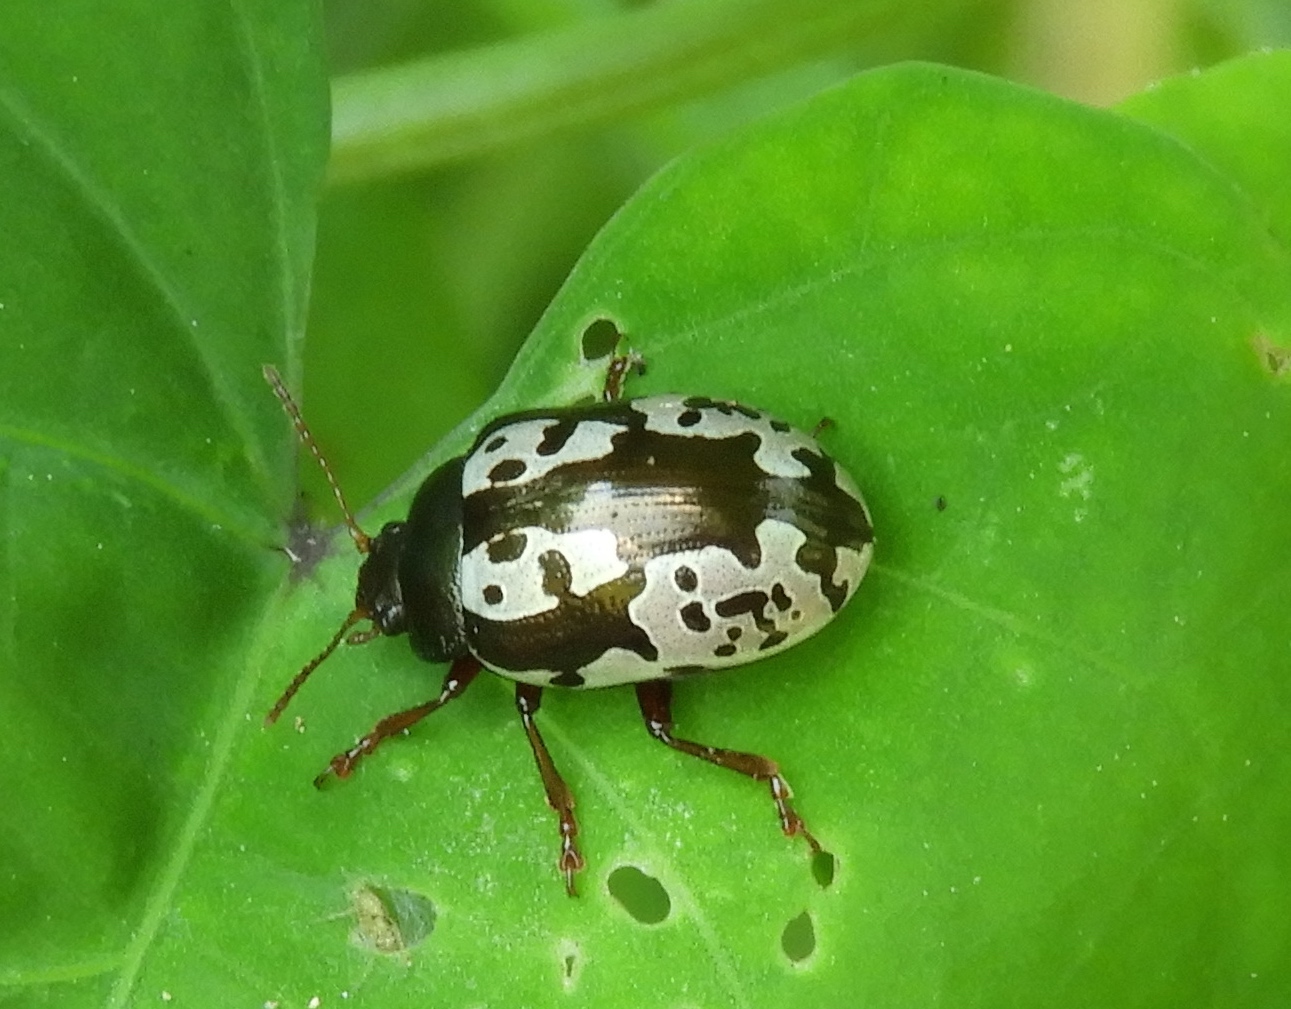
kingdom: Animalia
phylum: Arthropoda
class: Insecta
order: Coleoptera
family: Chrysomelidae
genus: Calligrapha
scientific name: Calligrapha intermedia
